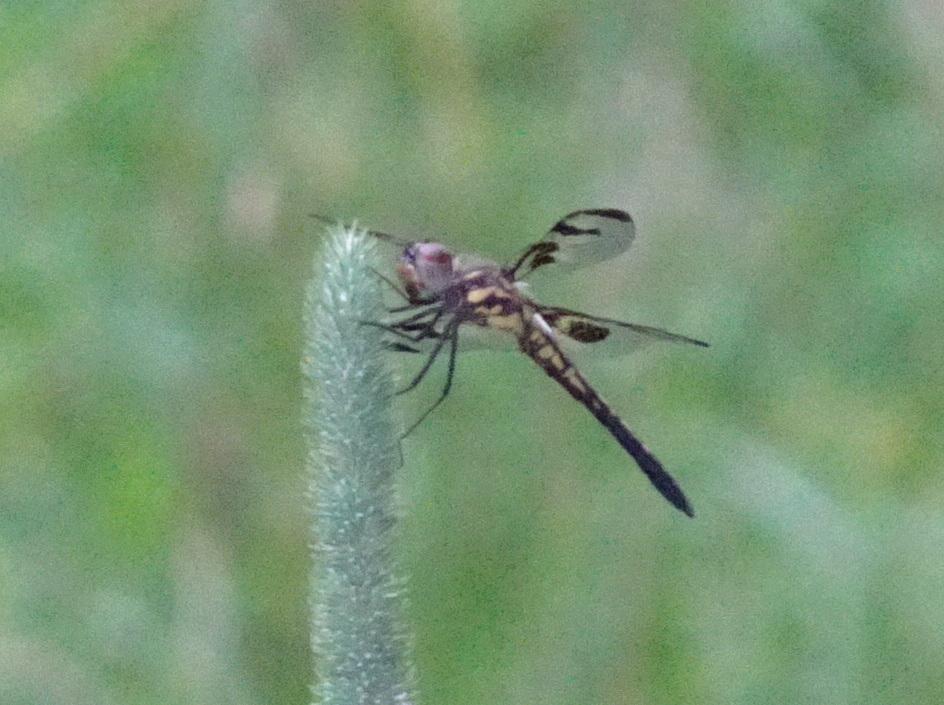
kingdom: Animalia
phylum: Arthropoda
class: Insecta
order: Odonata
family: Libellulidae
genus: Celithemis
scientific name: Celithemis fasciata
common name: Banded pennant
